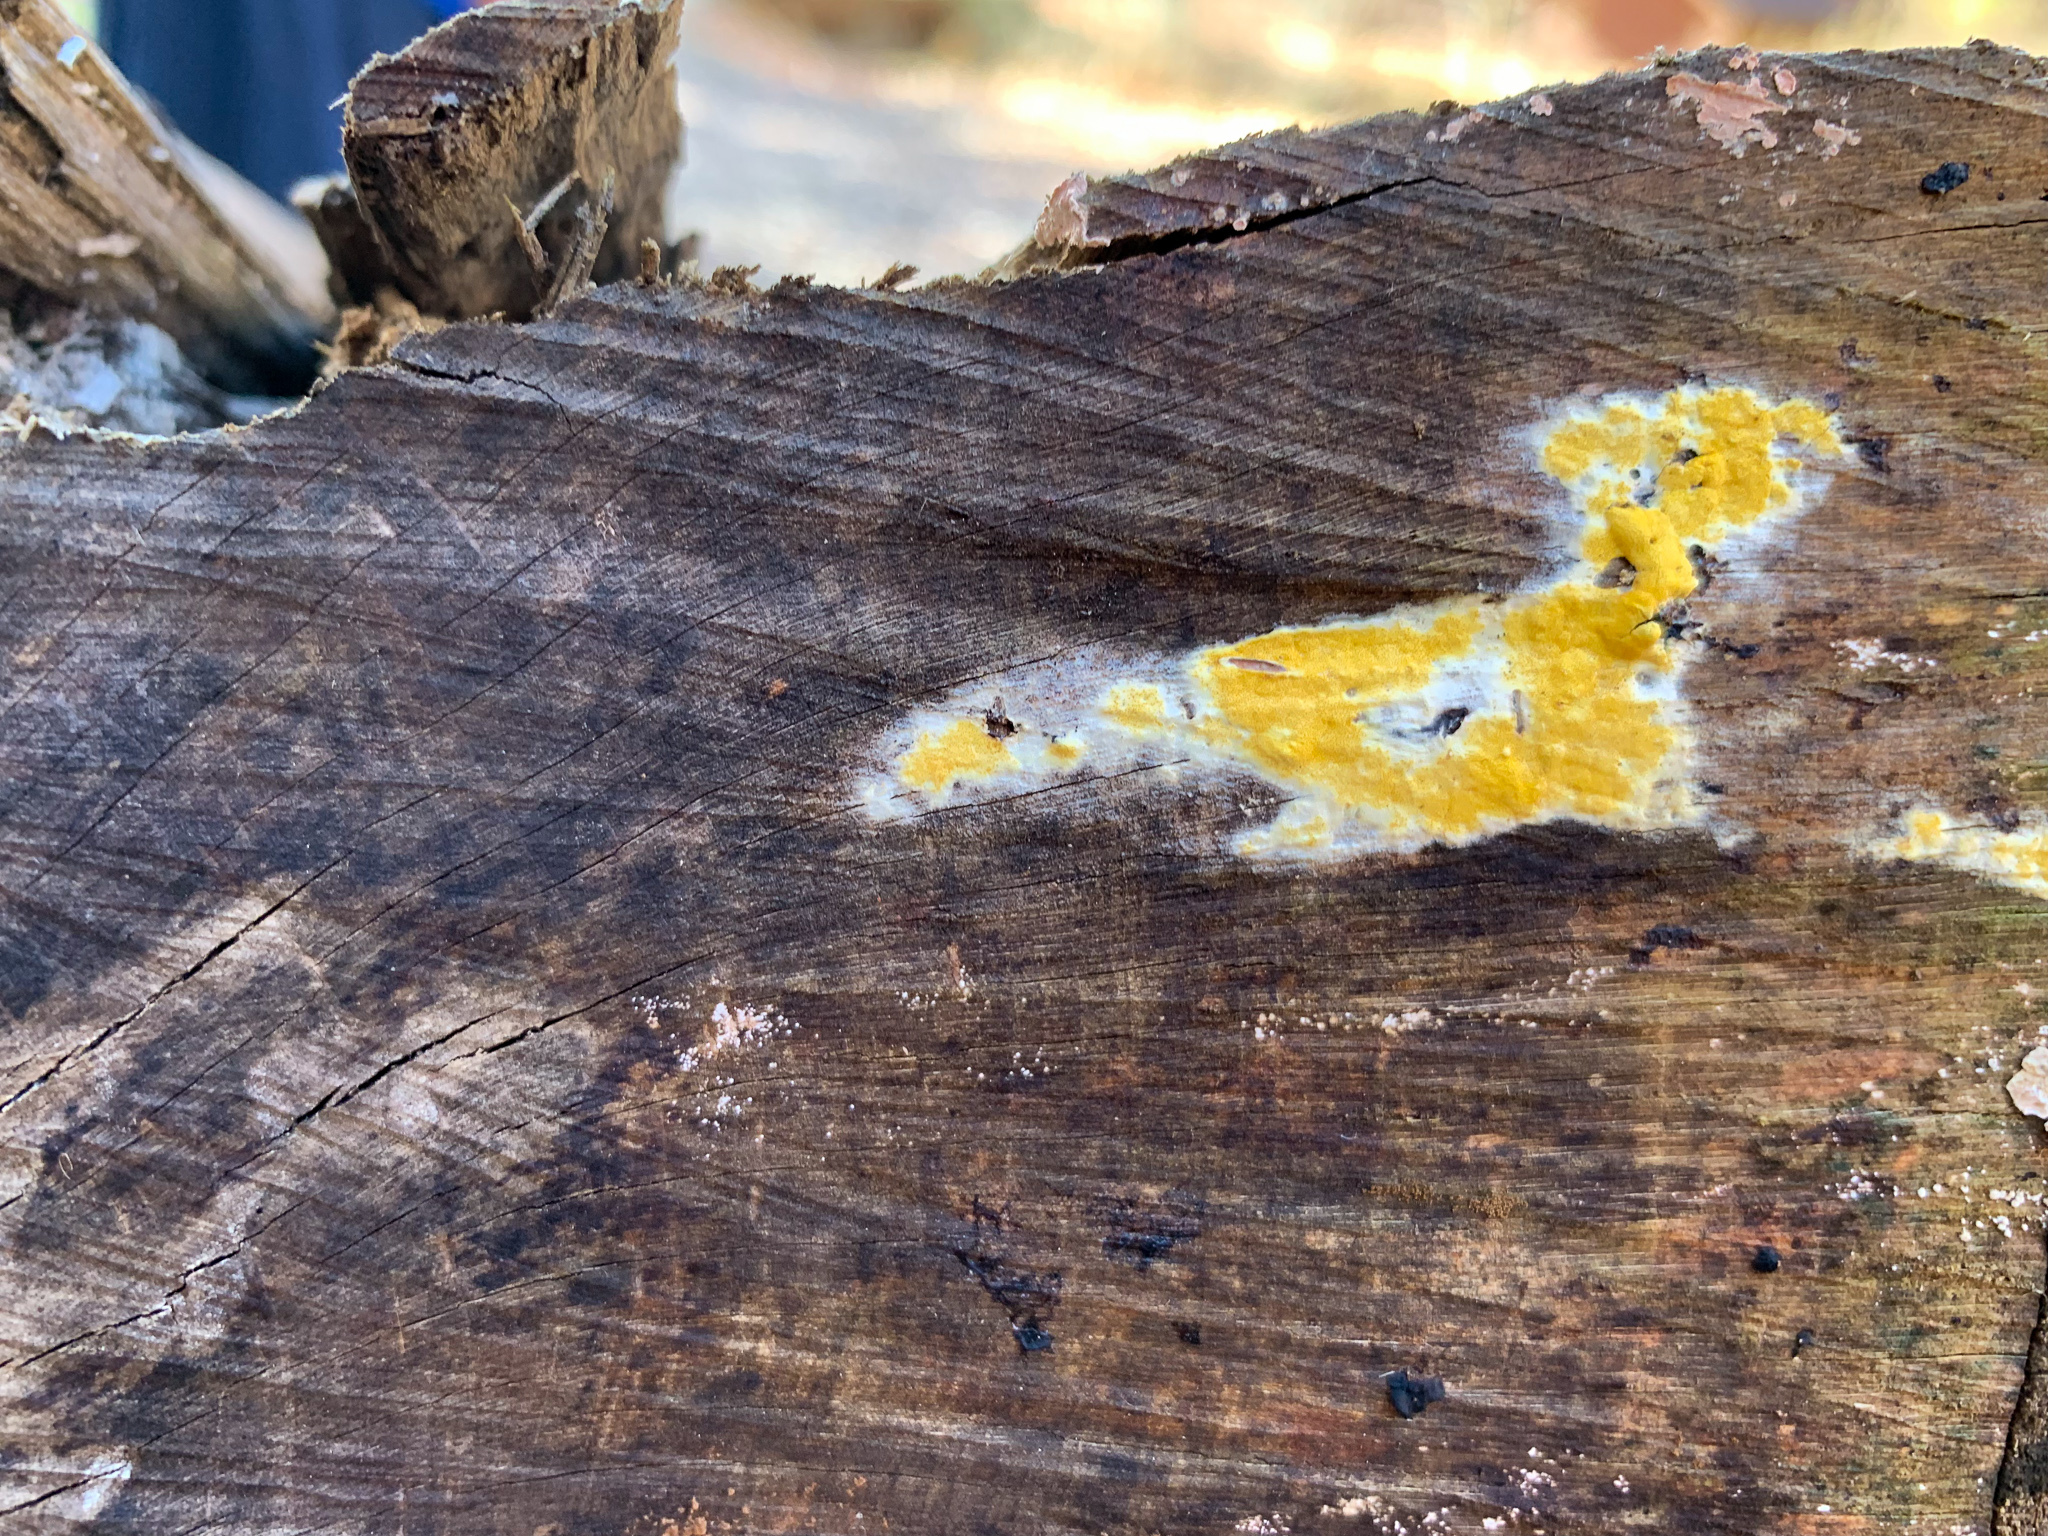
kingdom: Fungi
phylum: Ascomycota
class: Sordariomycetes
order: Hypocreales
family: Hypocreaceae
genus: Trichoderma
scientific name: Trichoderma sulphureum
